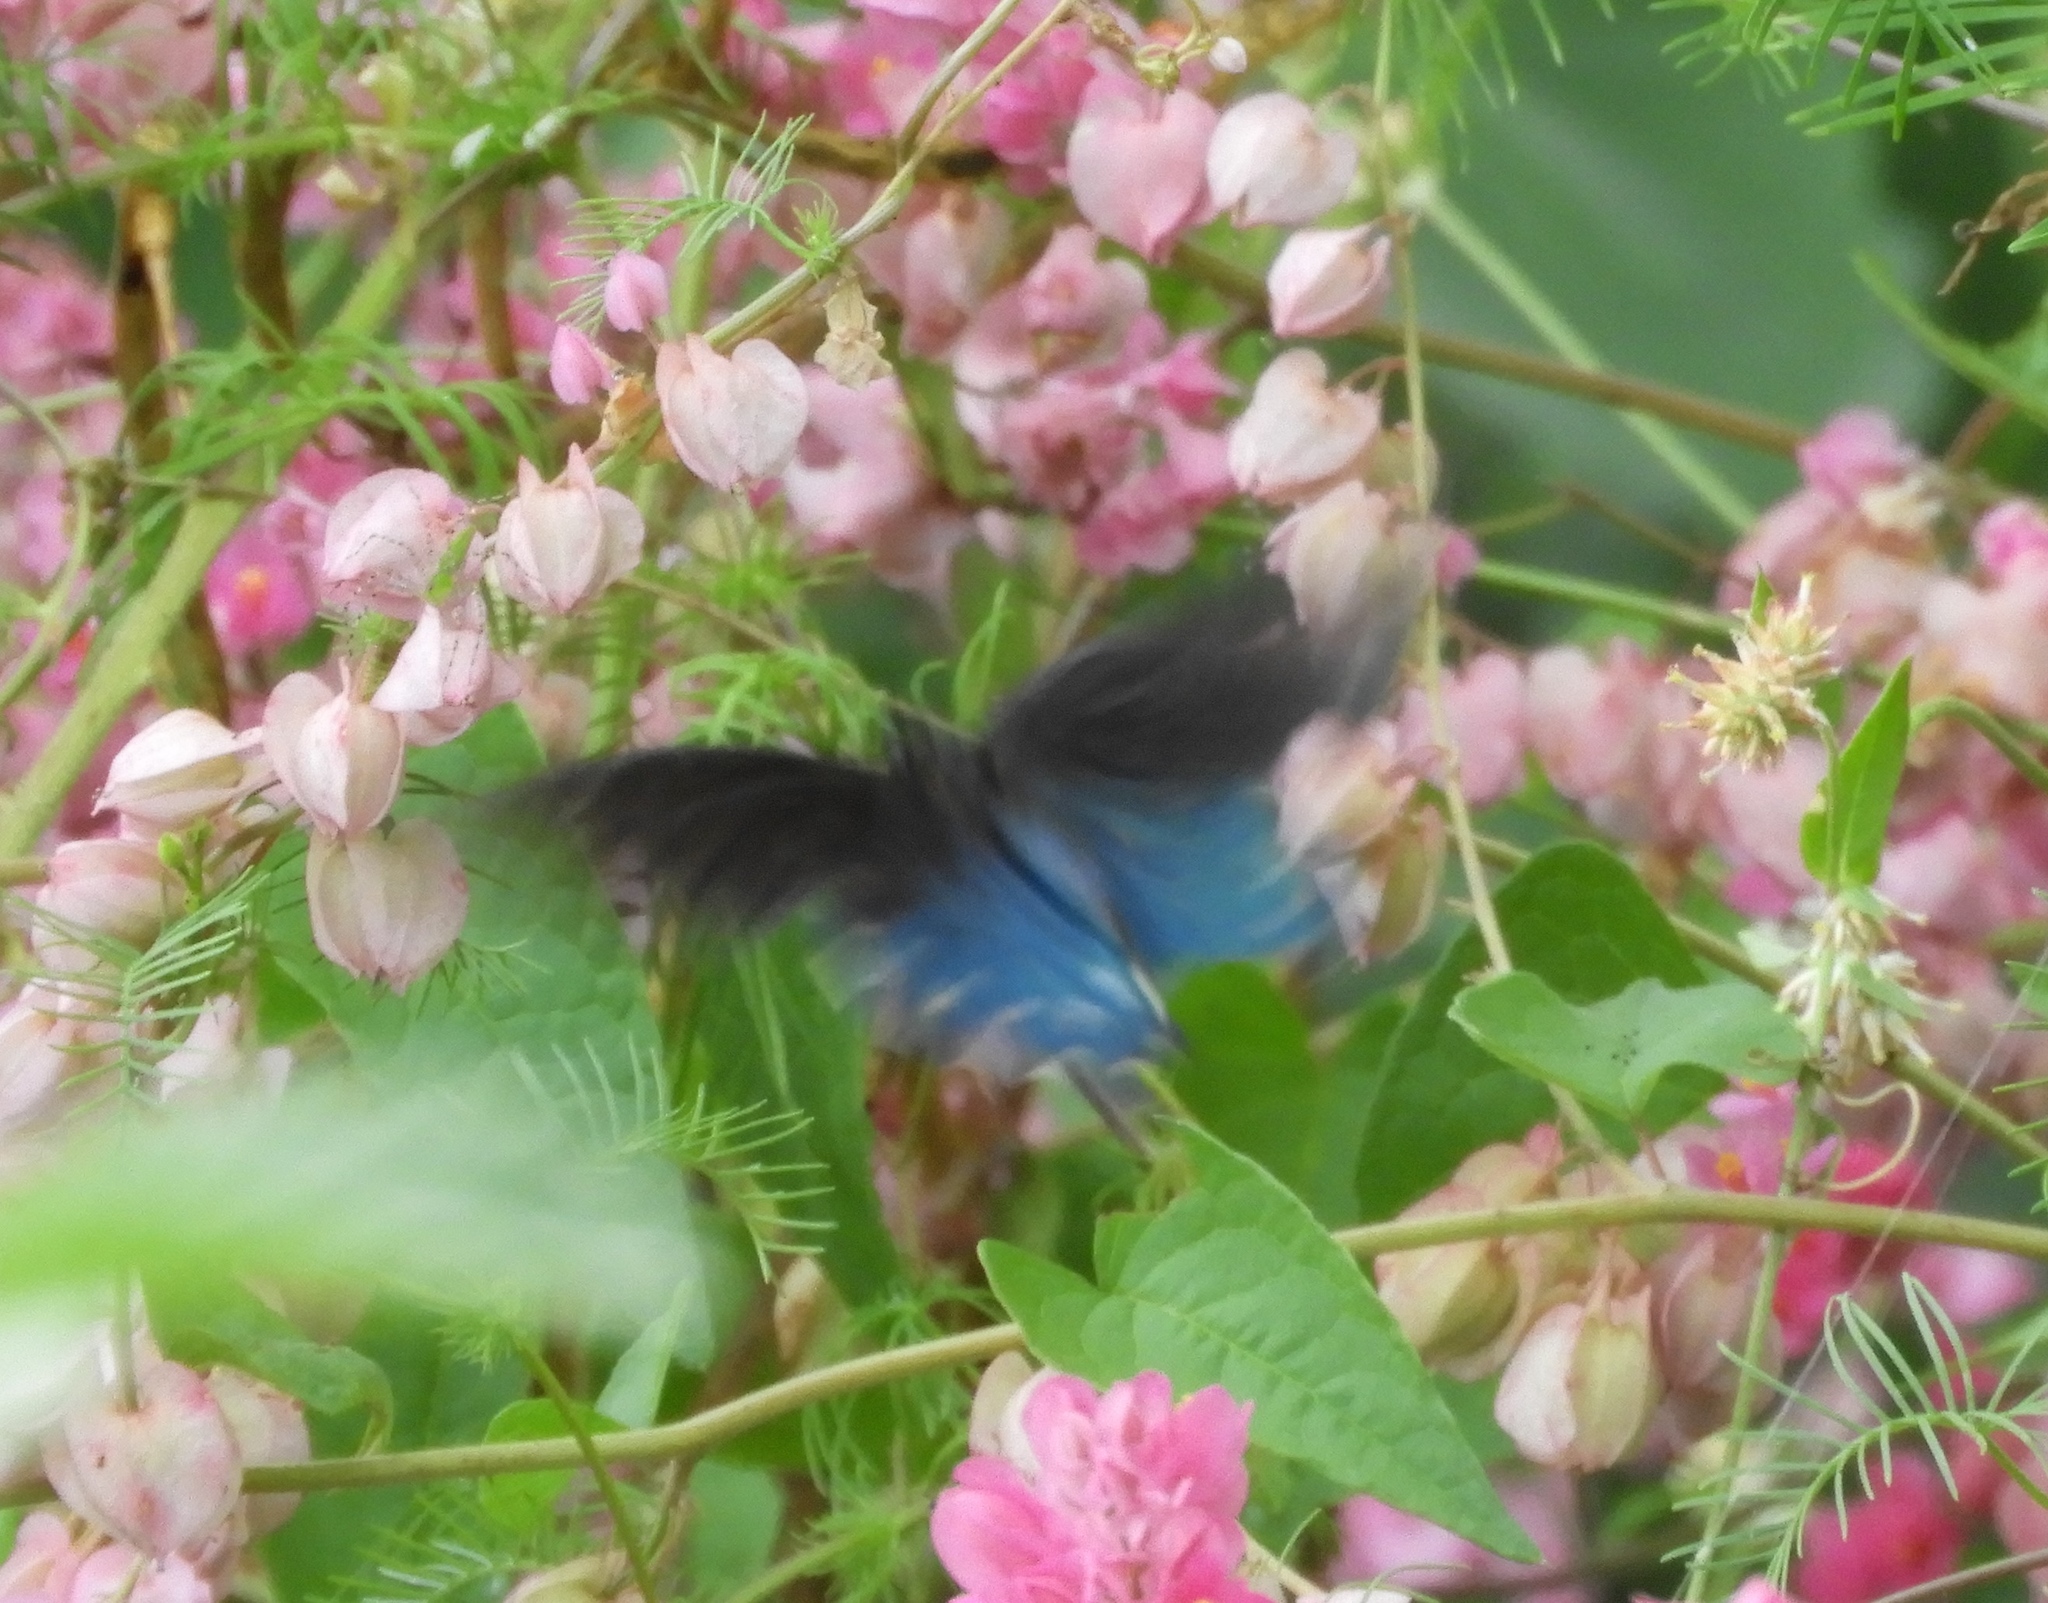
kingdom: Animalia
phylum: Arthropoda
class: Insecta
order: Lepidoptera
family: Papilionidae
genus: Battus
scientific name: Battus philenor
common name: Pipevine swallowtail
